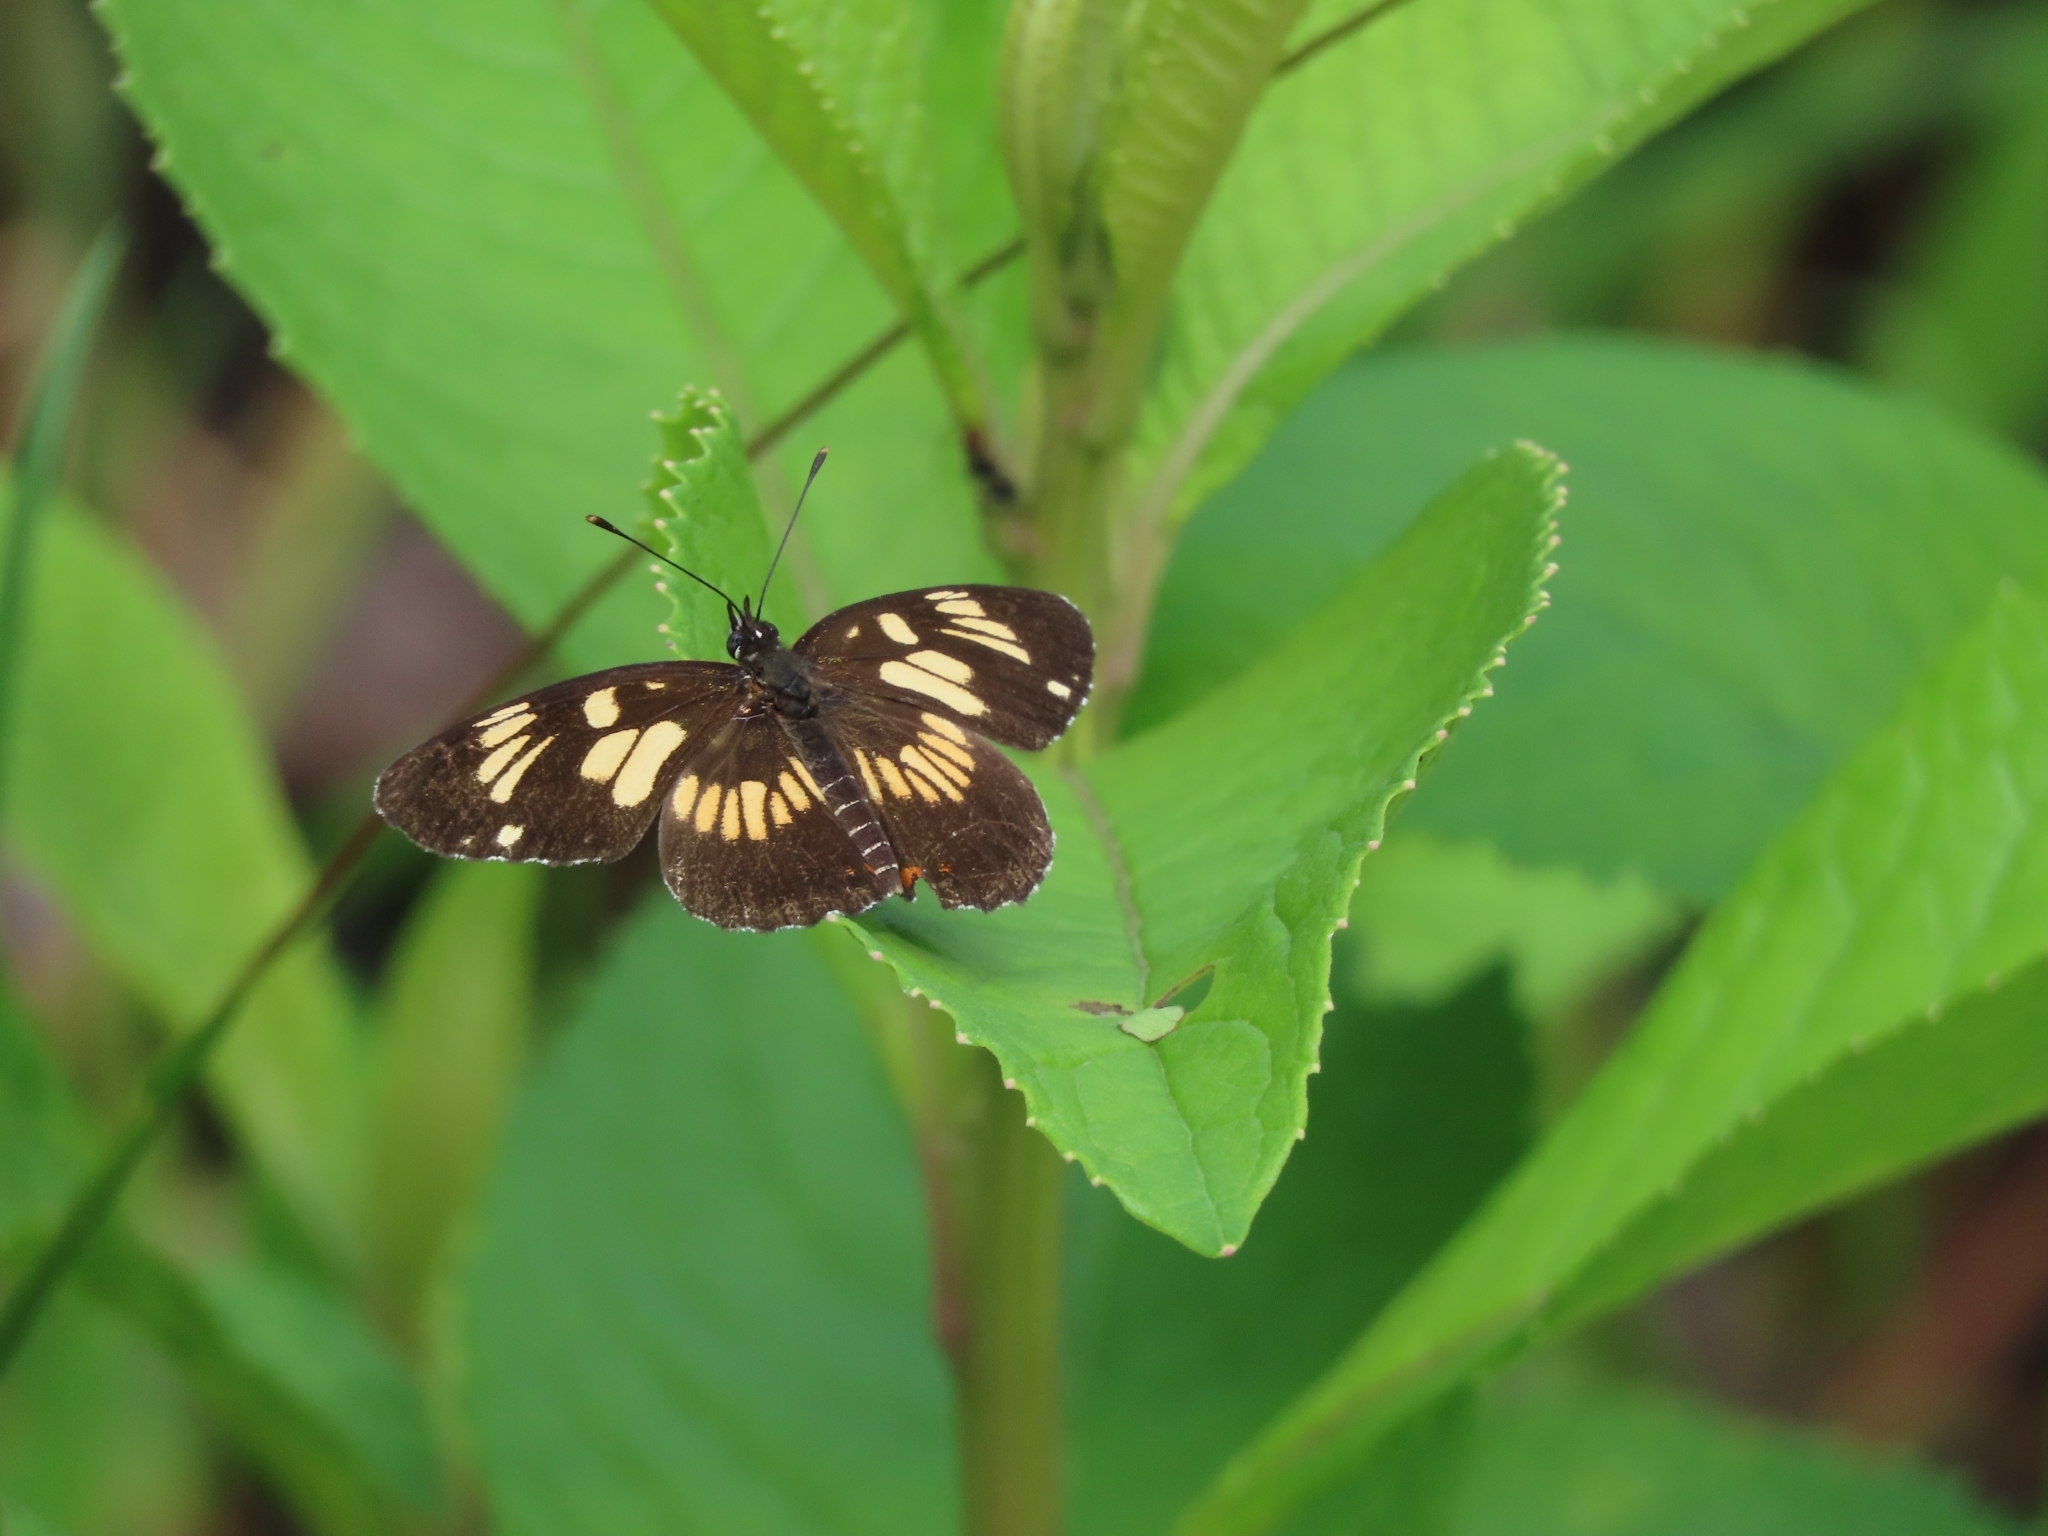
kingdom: Animalia
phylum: Arthropoda
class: Insecta
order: Lepidoptera
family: Nymphalidae
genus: Chlosyne
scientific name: Chlosyne ezra
